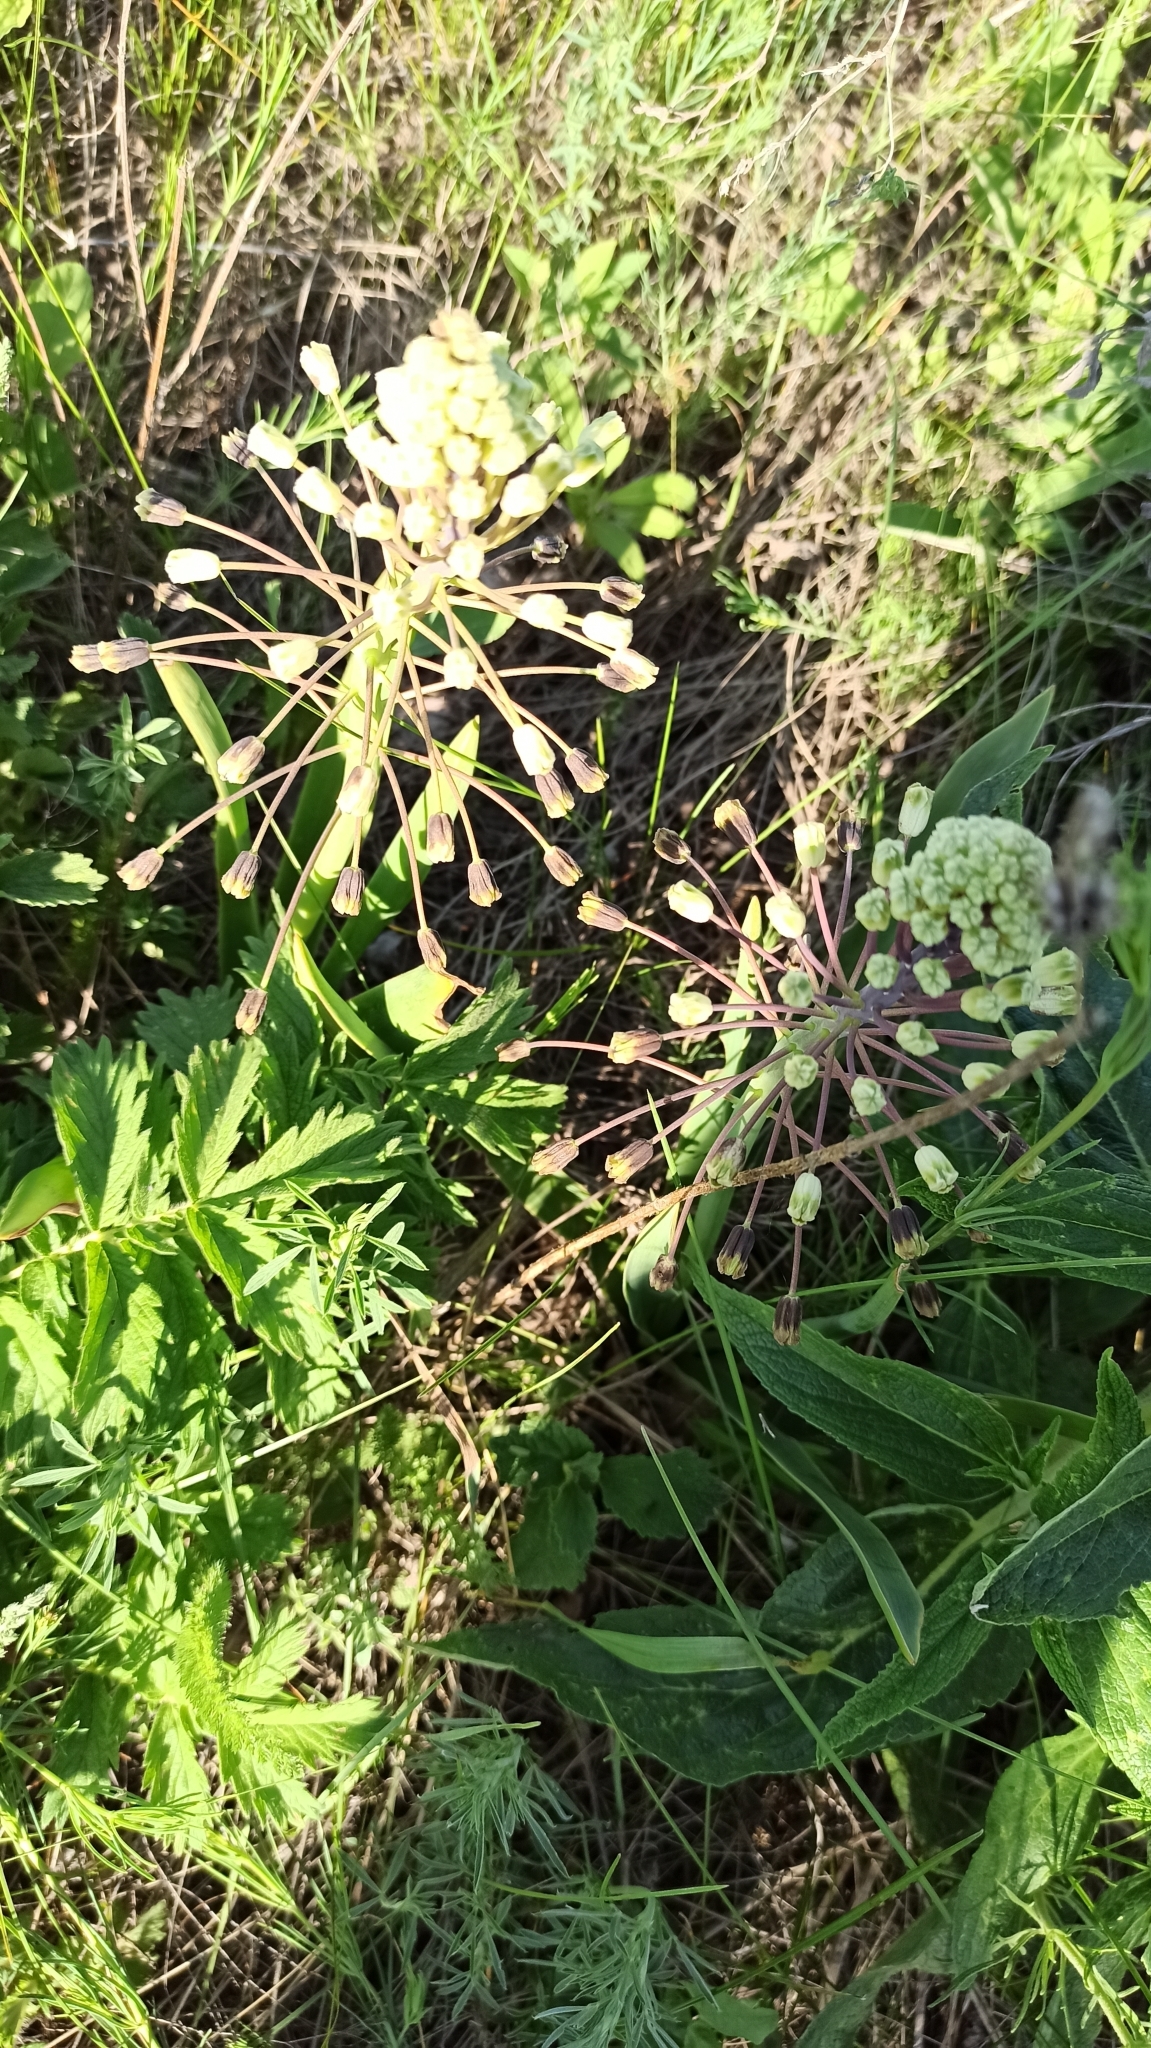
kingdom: Plantae
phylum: Tracheophyta
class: Liliopsida
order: Asparagales
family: Asparagaceae
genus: Bellevalia
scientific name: Bellevalia speciosa
